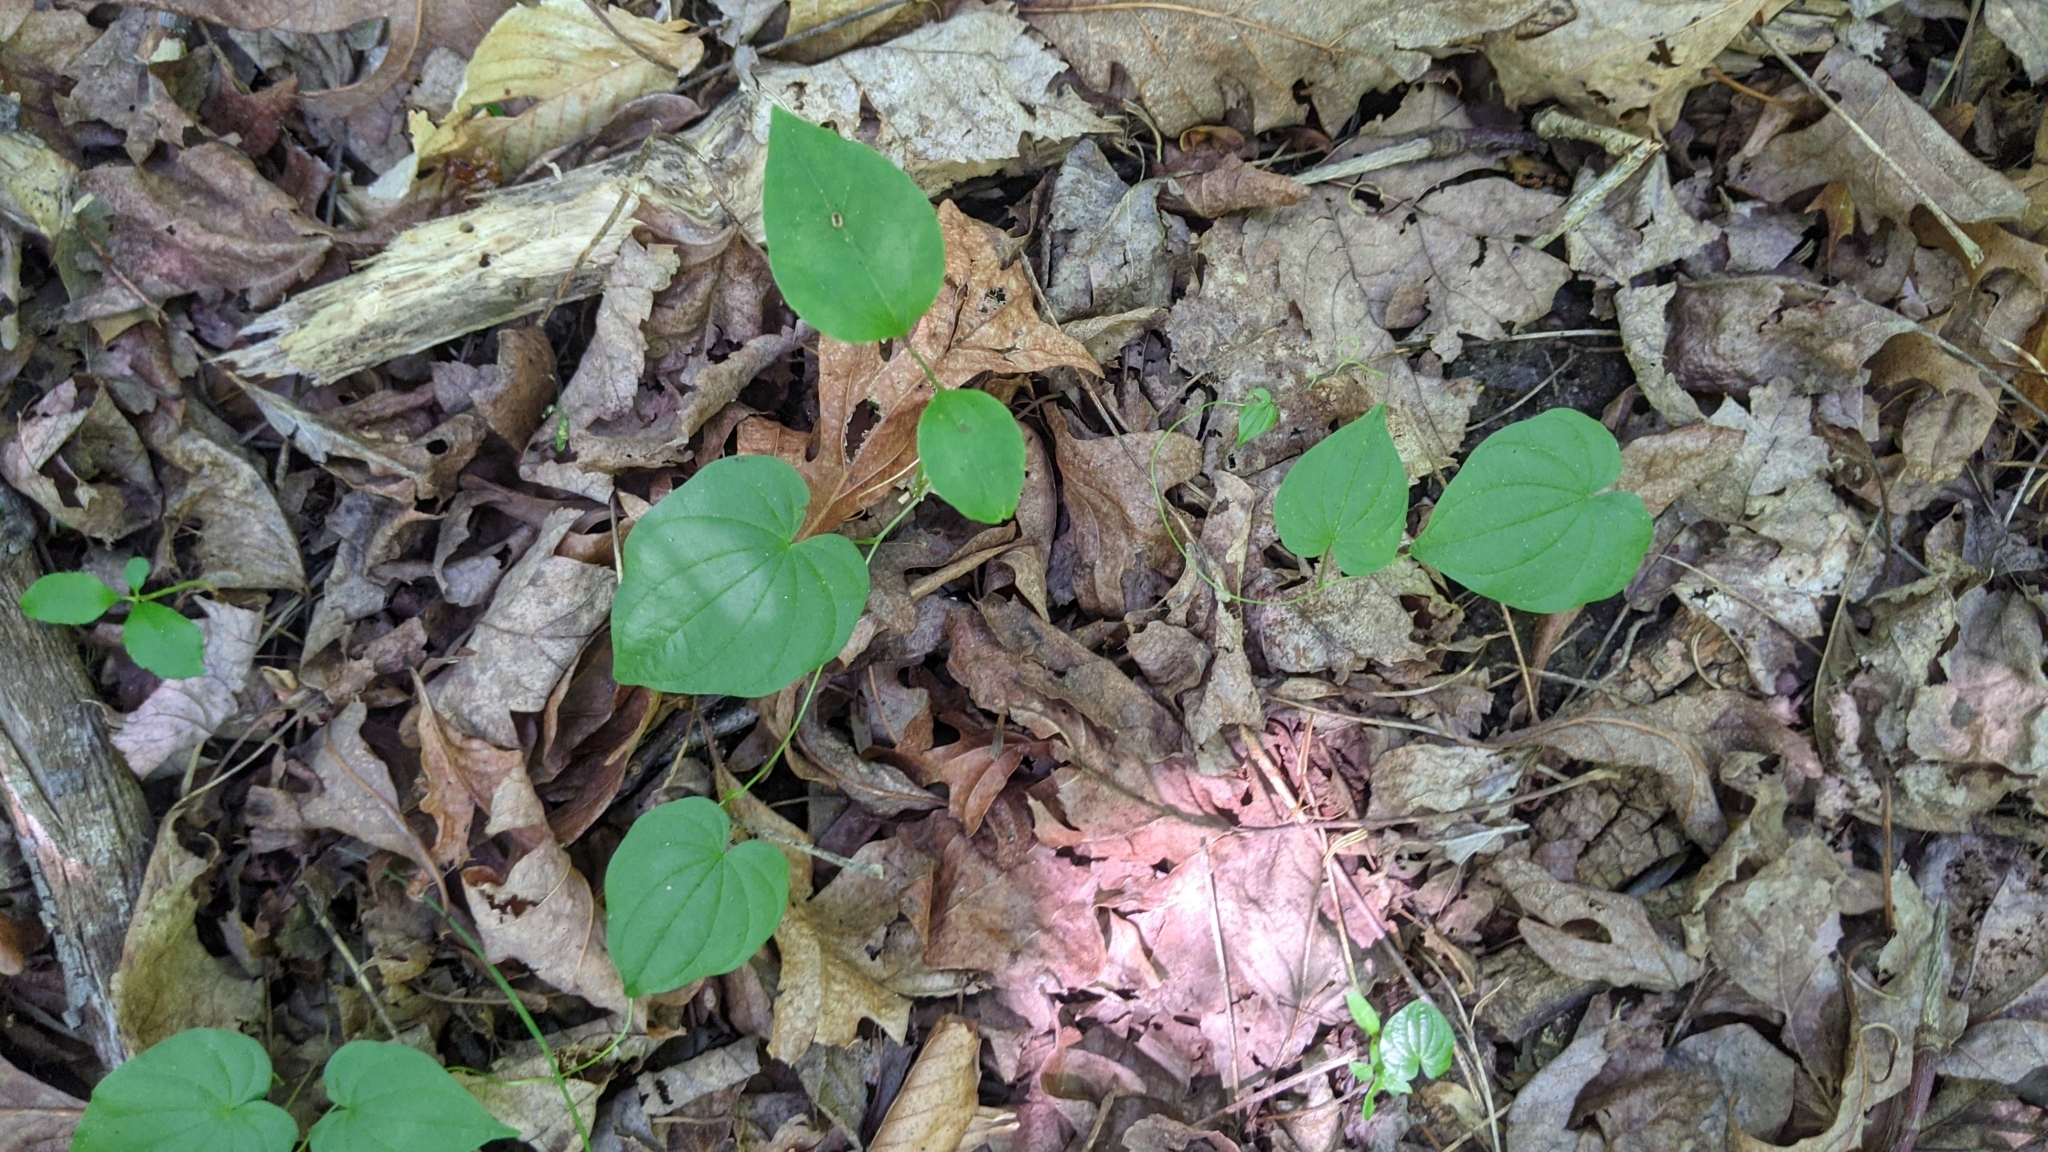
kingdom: Plantae
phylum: Tracheophyta
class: Liliopsida
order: Dioscoreales
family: Dioscoreaceae
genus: Dioscorea
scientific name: Dioscorea villosa
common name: Wild yam
